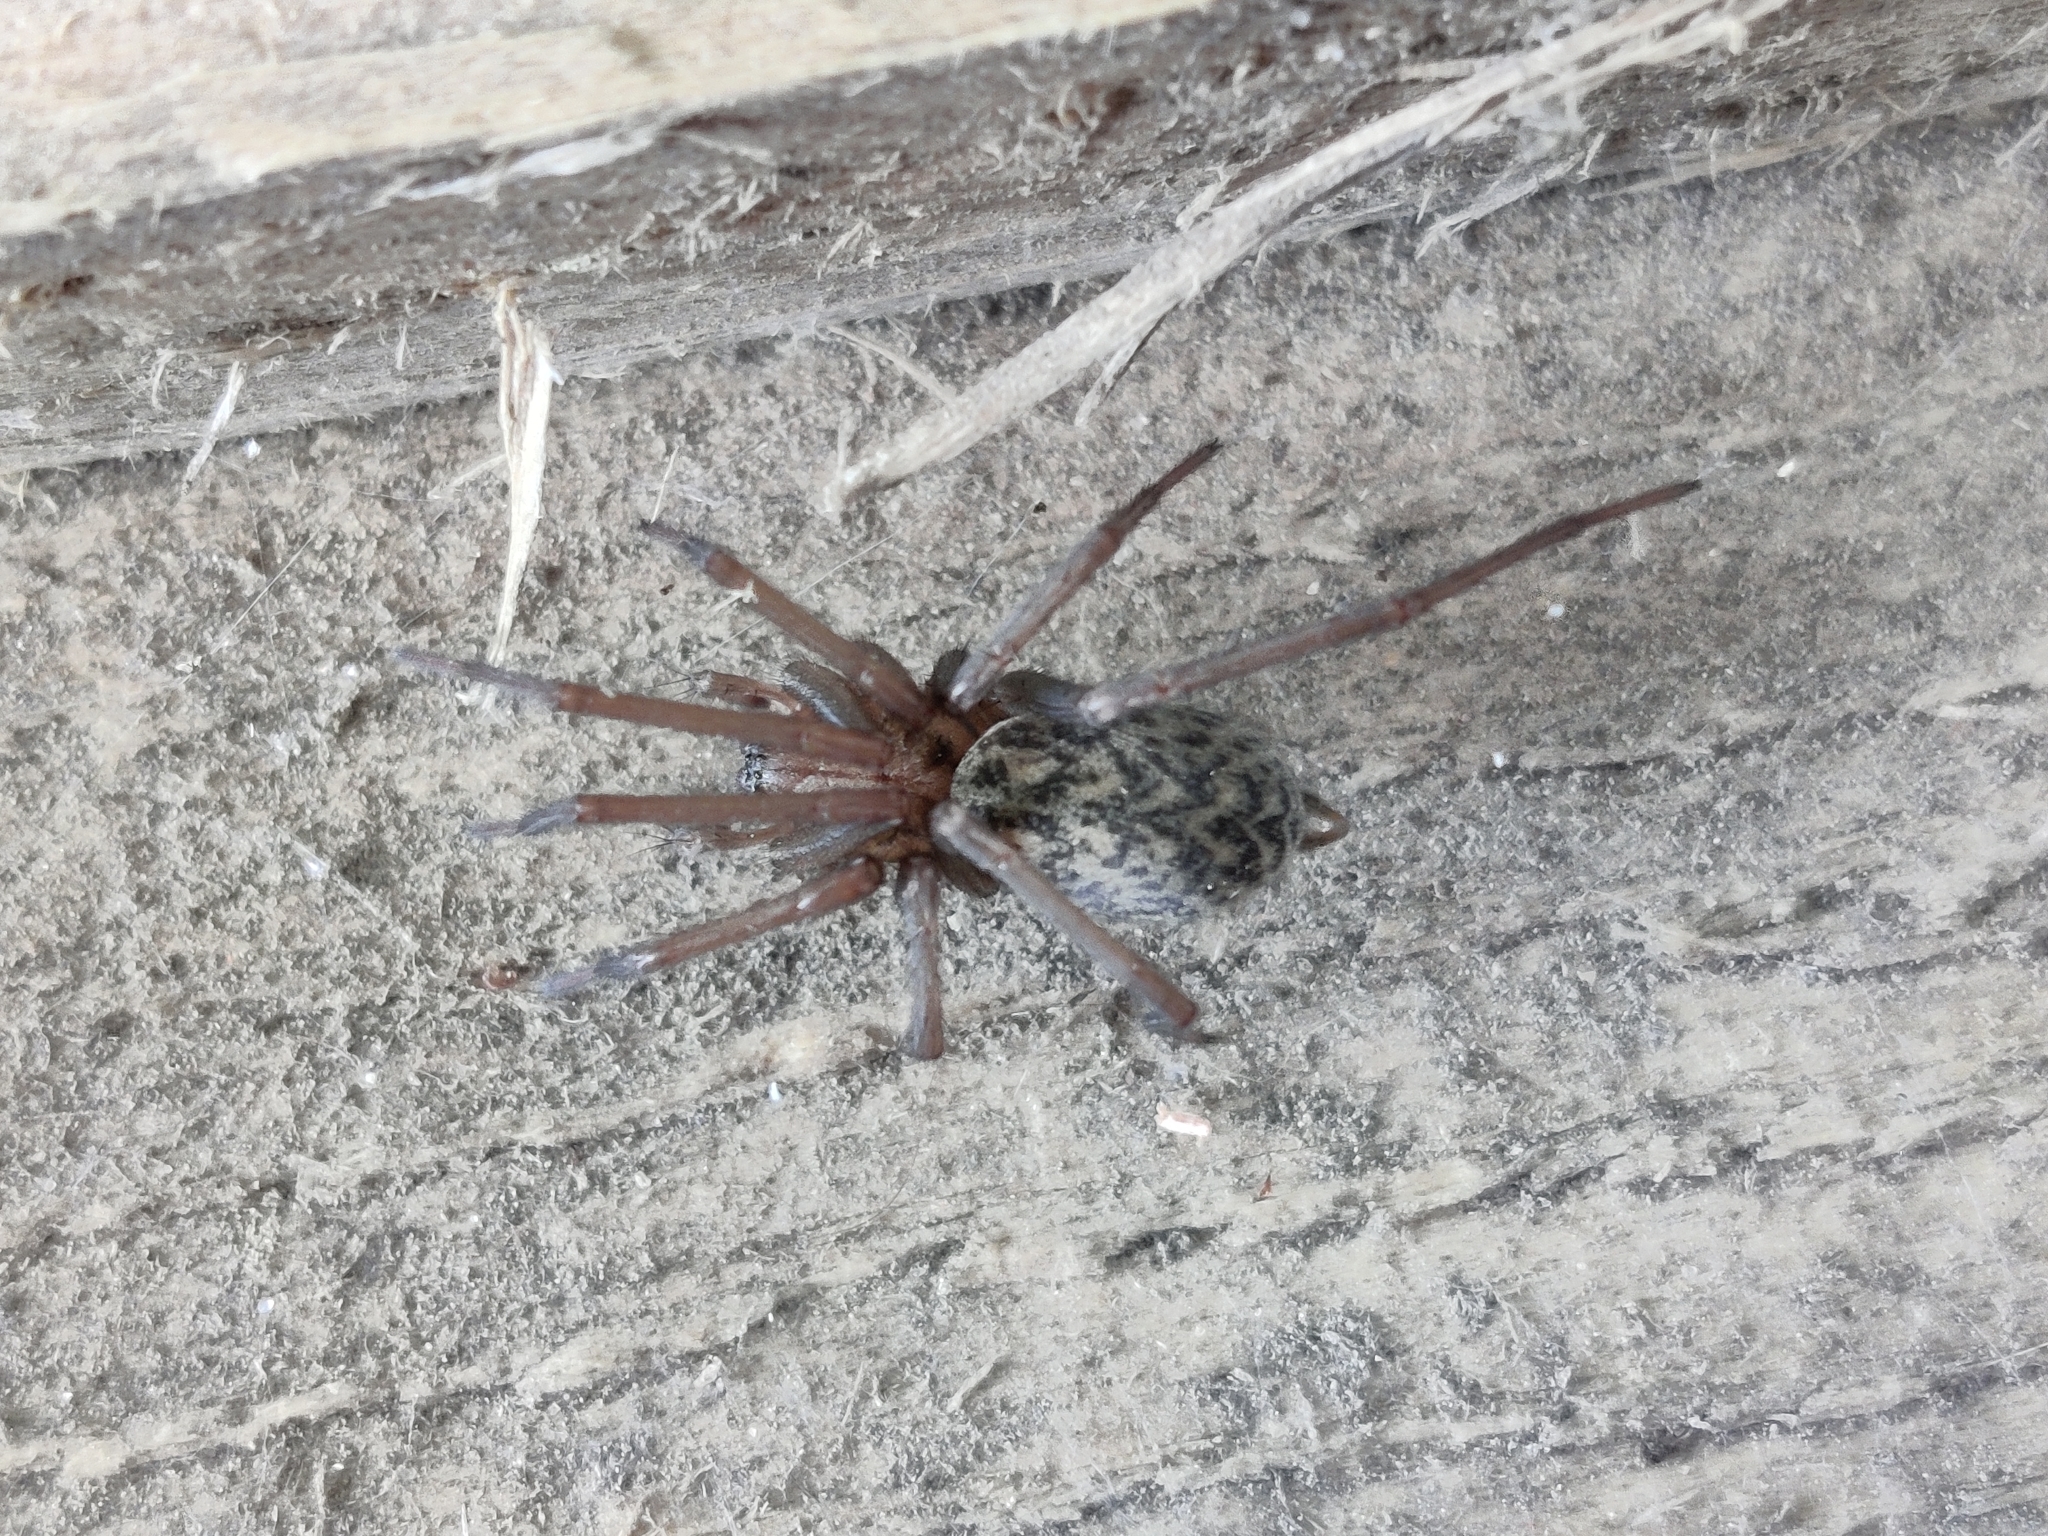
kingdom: Animalia
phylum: Arthropoda
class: Arachnida
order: Araneae
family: Agelenidae
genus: Eratigena
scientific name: Eratigena atrica
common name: Giant house spider
